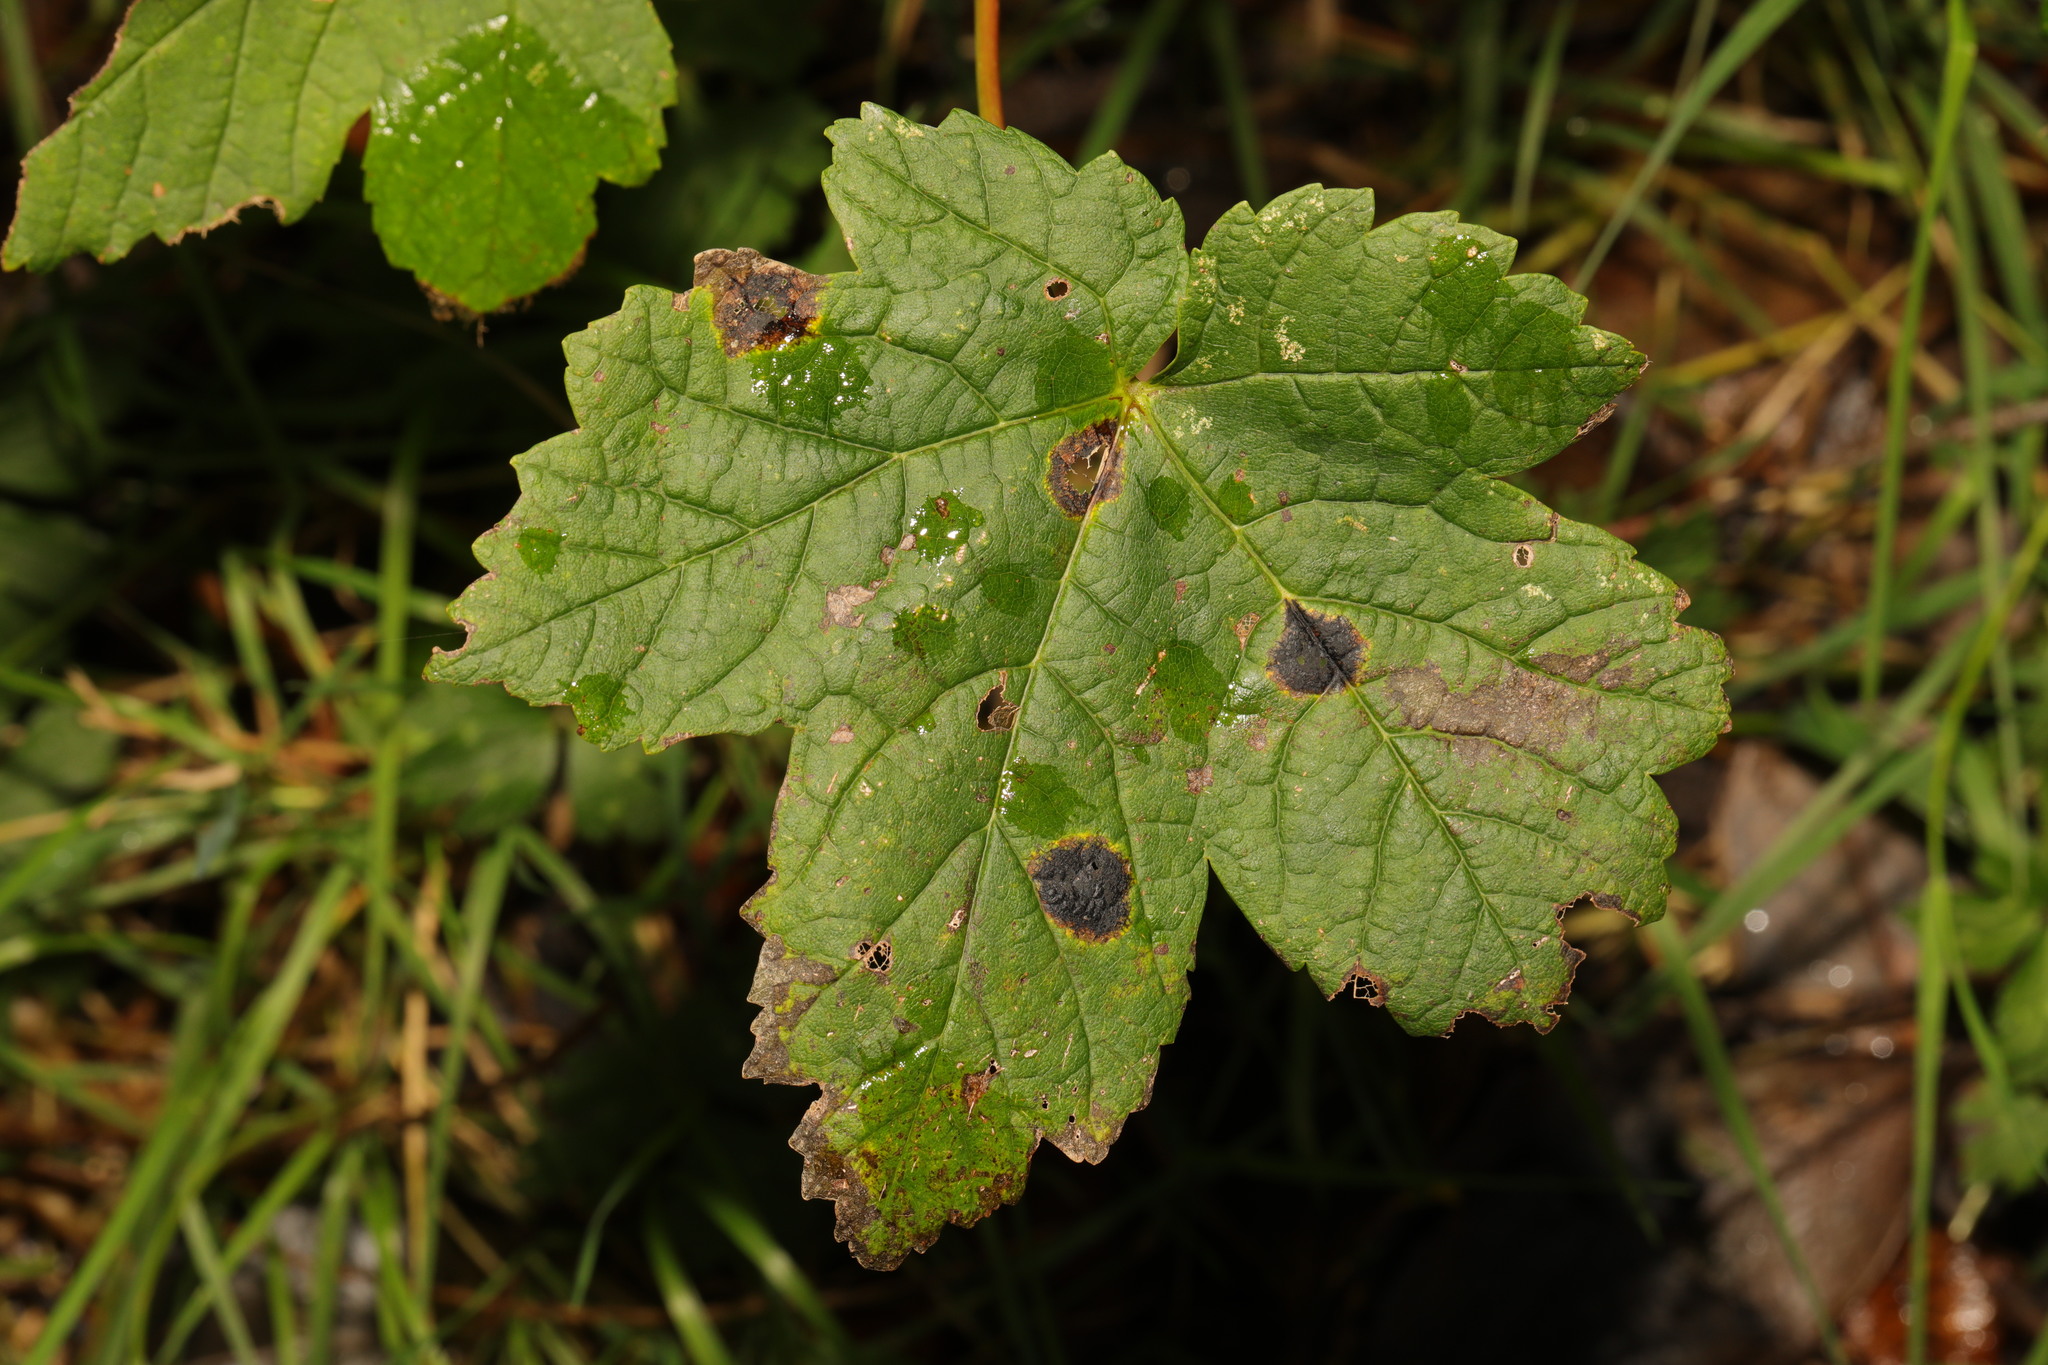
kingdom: Plantae
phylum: Tracheophyta
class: Magnoliopsida
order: Sapindales
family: Sapindaceae
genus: Acer
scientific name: Acer pseudoplatanus
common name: Sycamore
